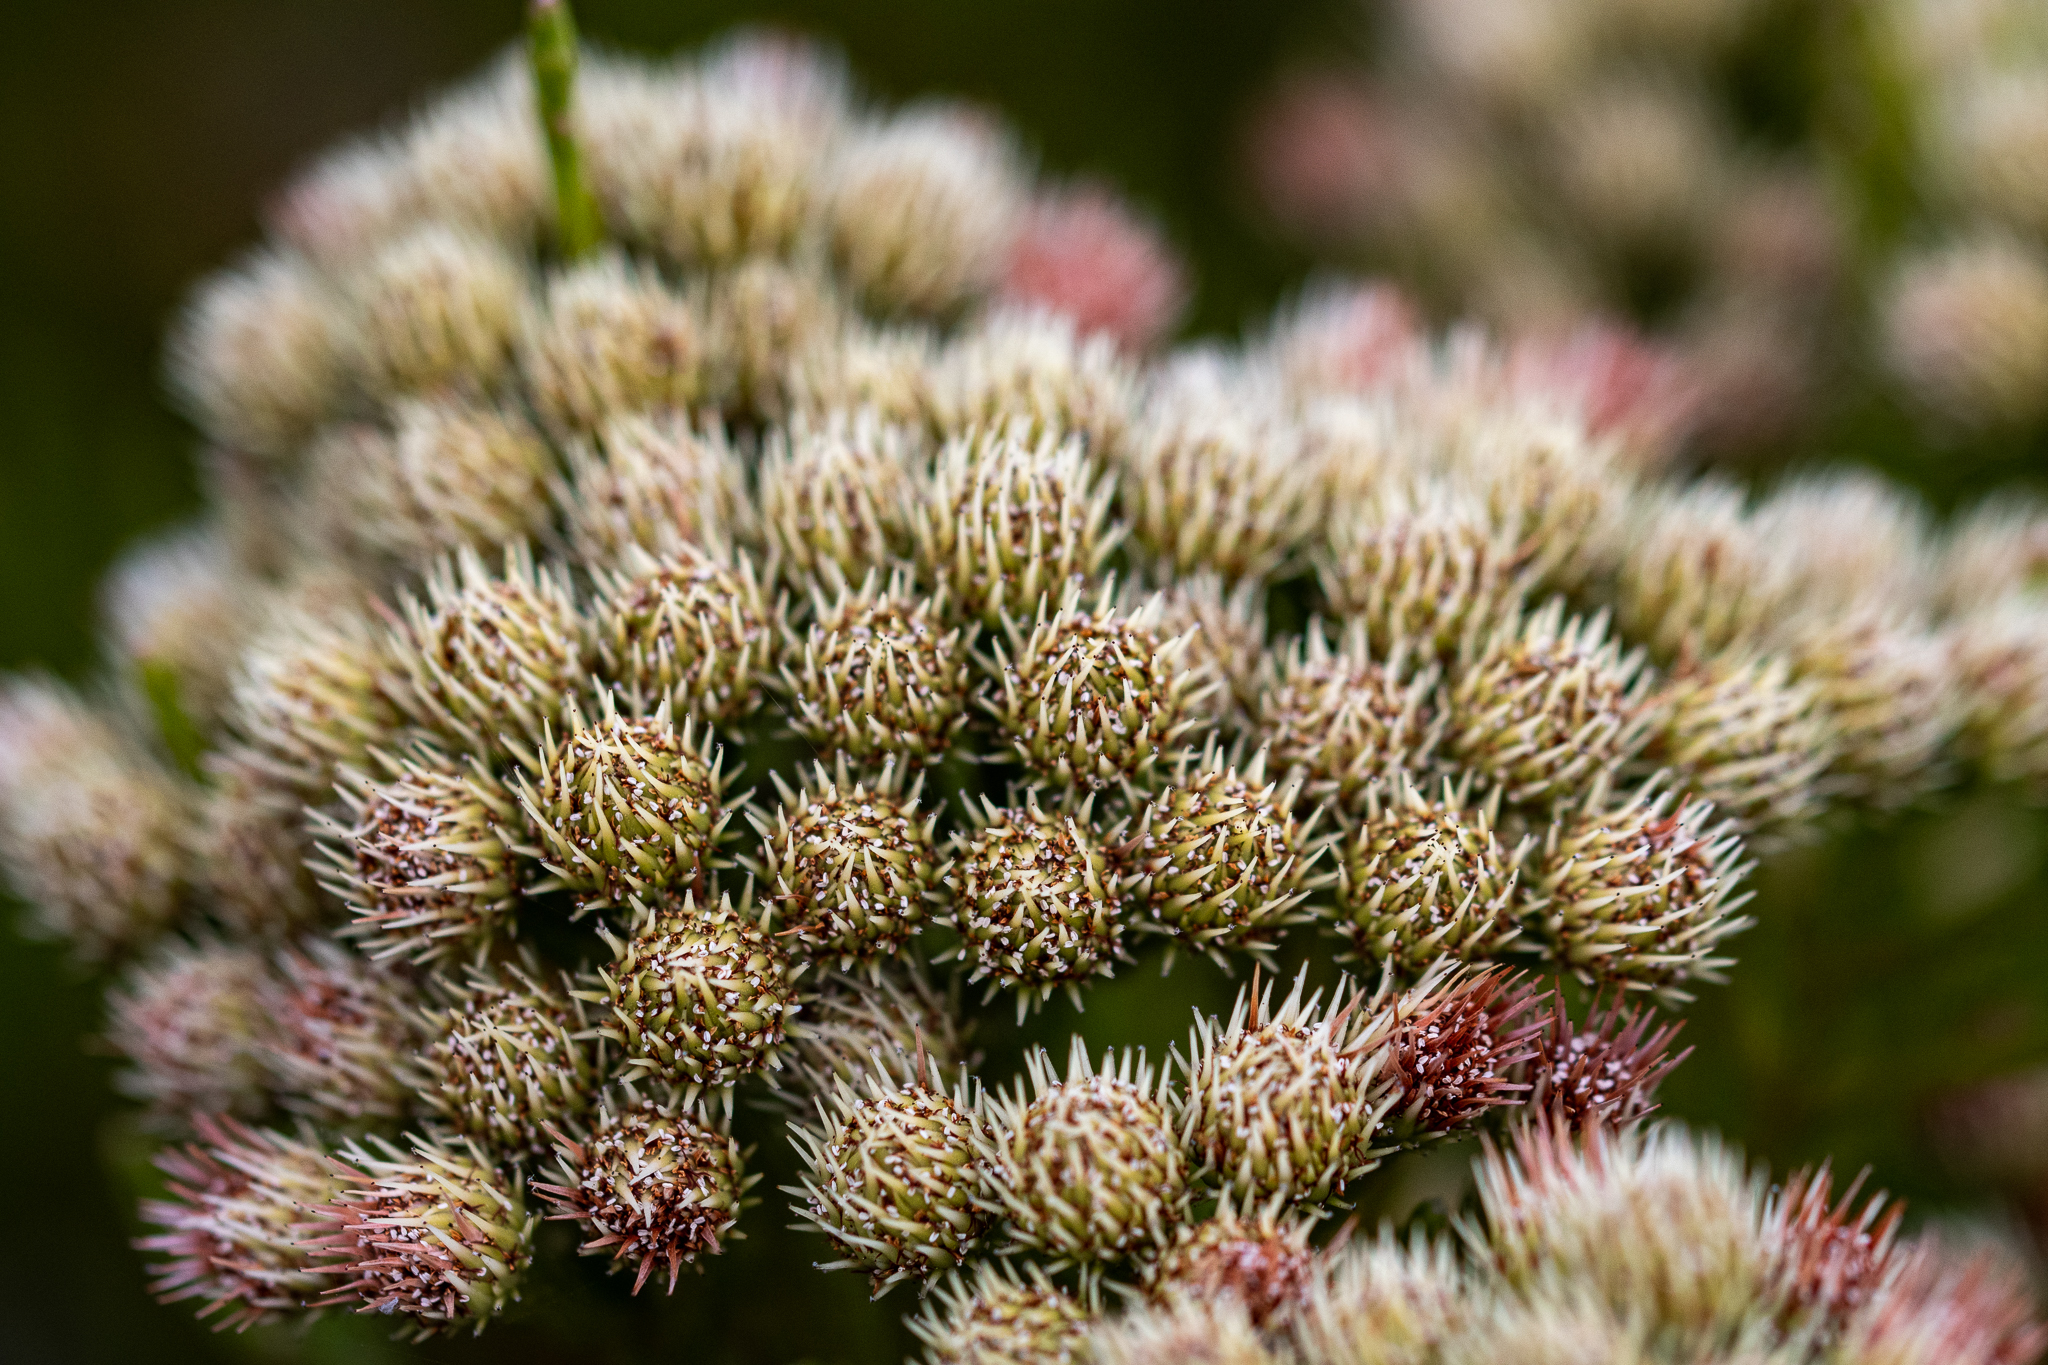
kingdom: Plantae
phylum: Tracheophyta
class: Magnoliopsida
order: Bruniales
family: Bruniaceae
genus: Brunia
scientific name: Brunia paleacea
